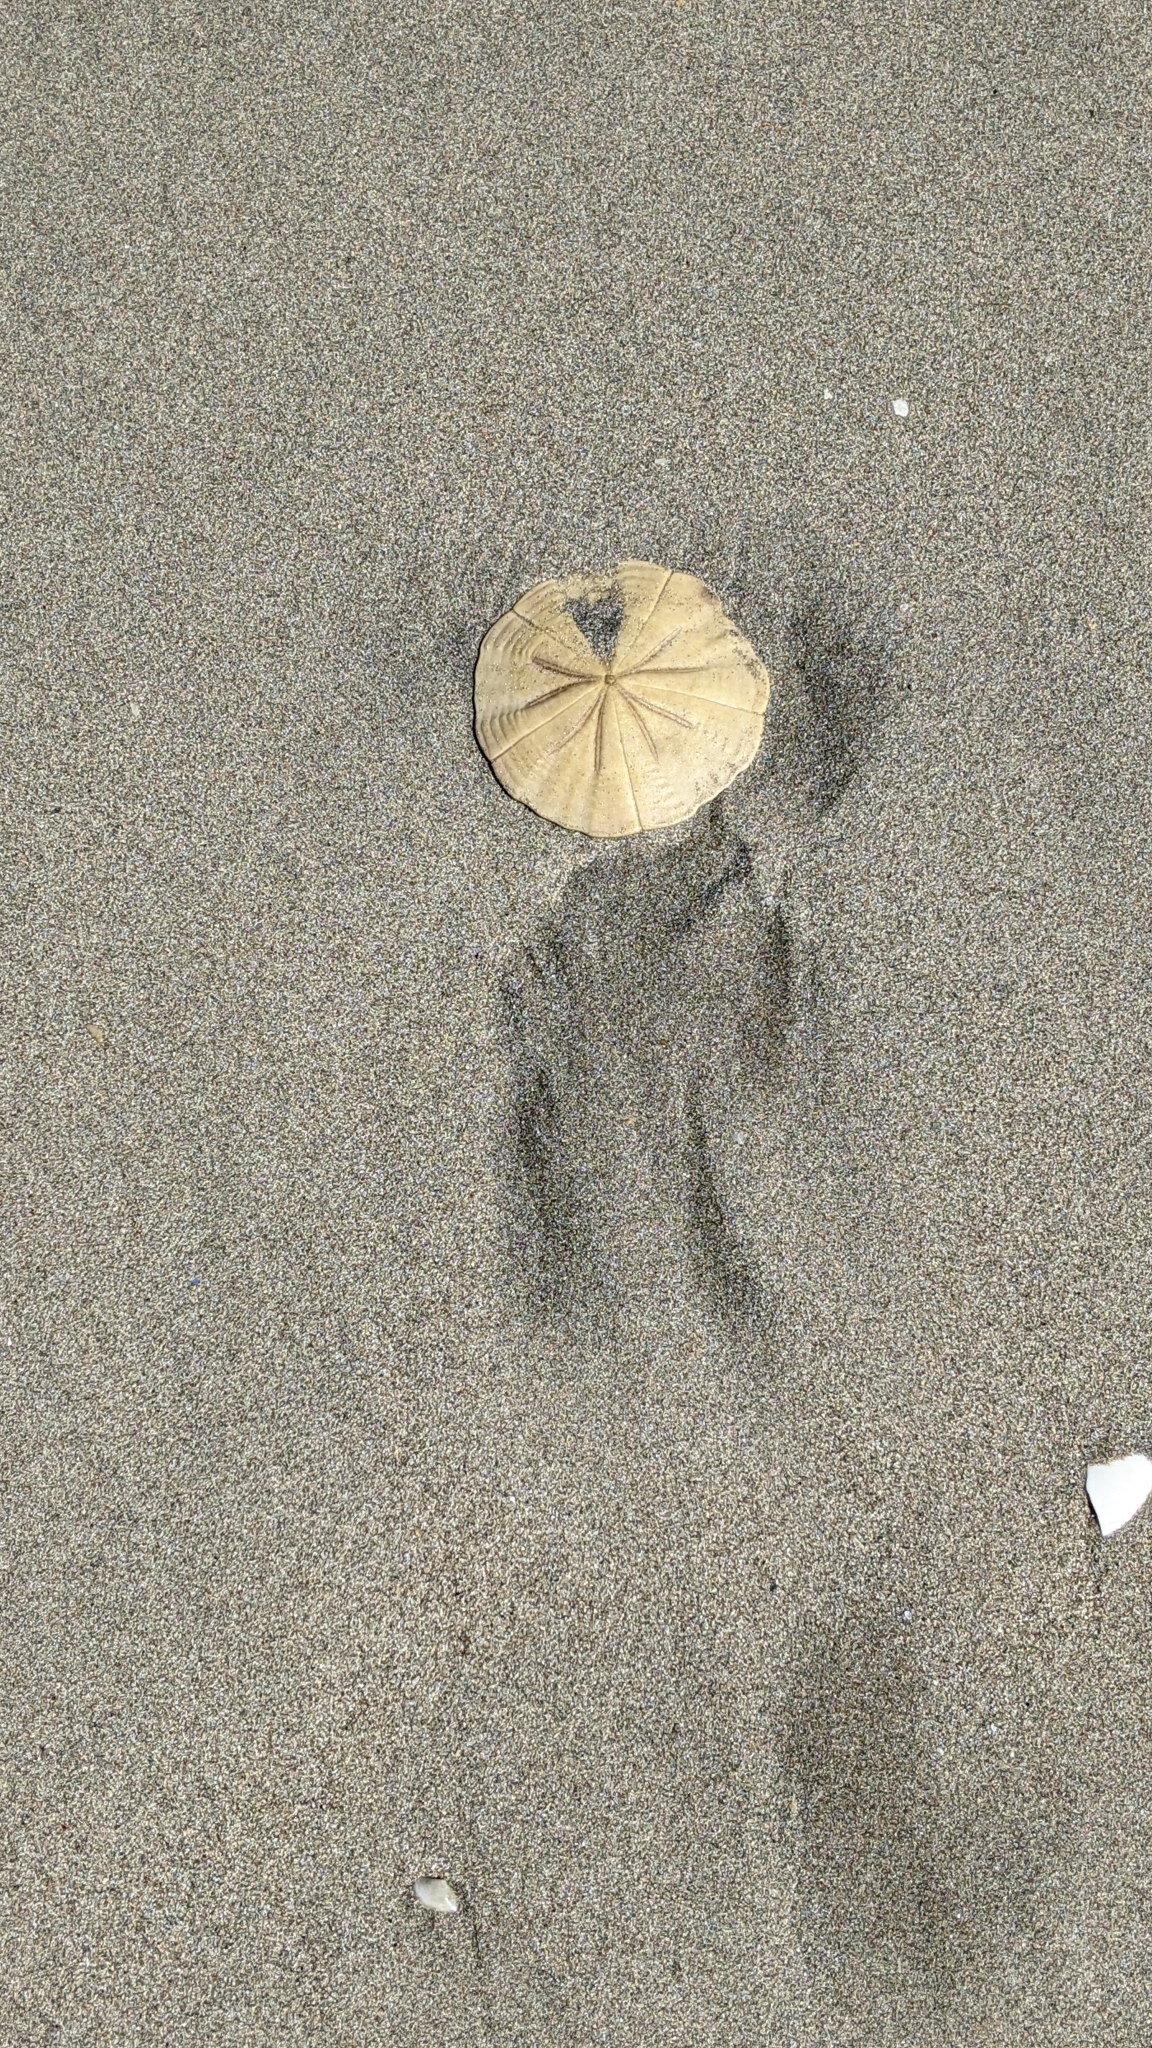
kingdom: Animalia
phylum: Echinodermata
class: Echinoidea
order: Clypeasteroida
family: Clypeasteridae
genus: Fellaster
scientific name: Fellaster zelandiae
